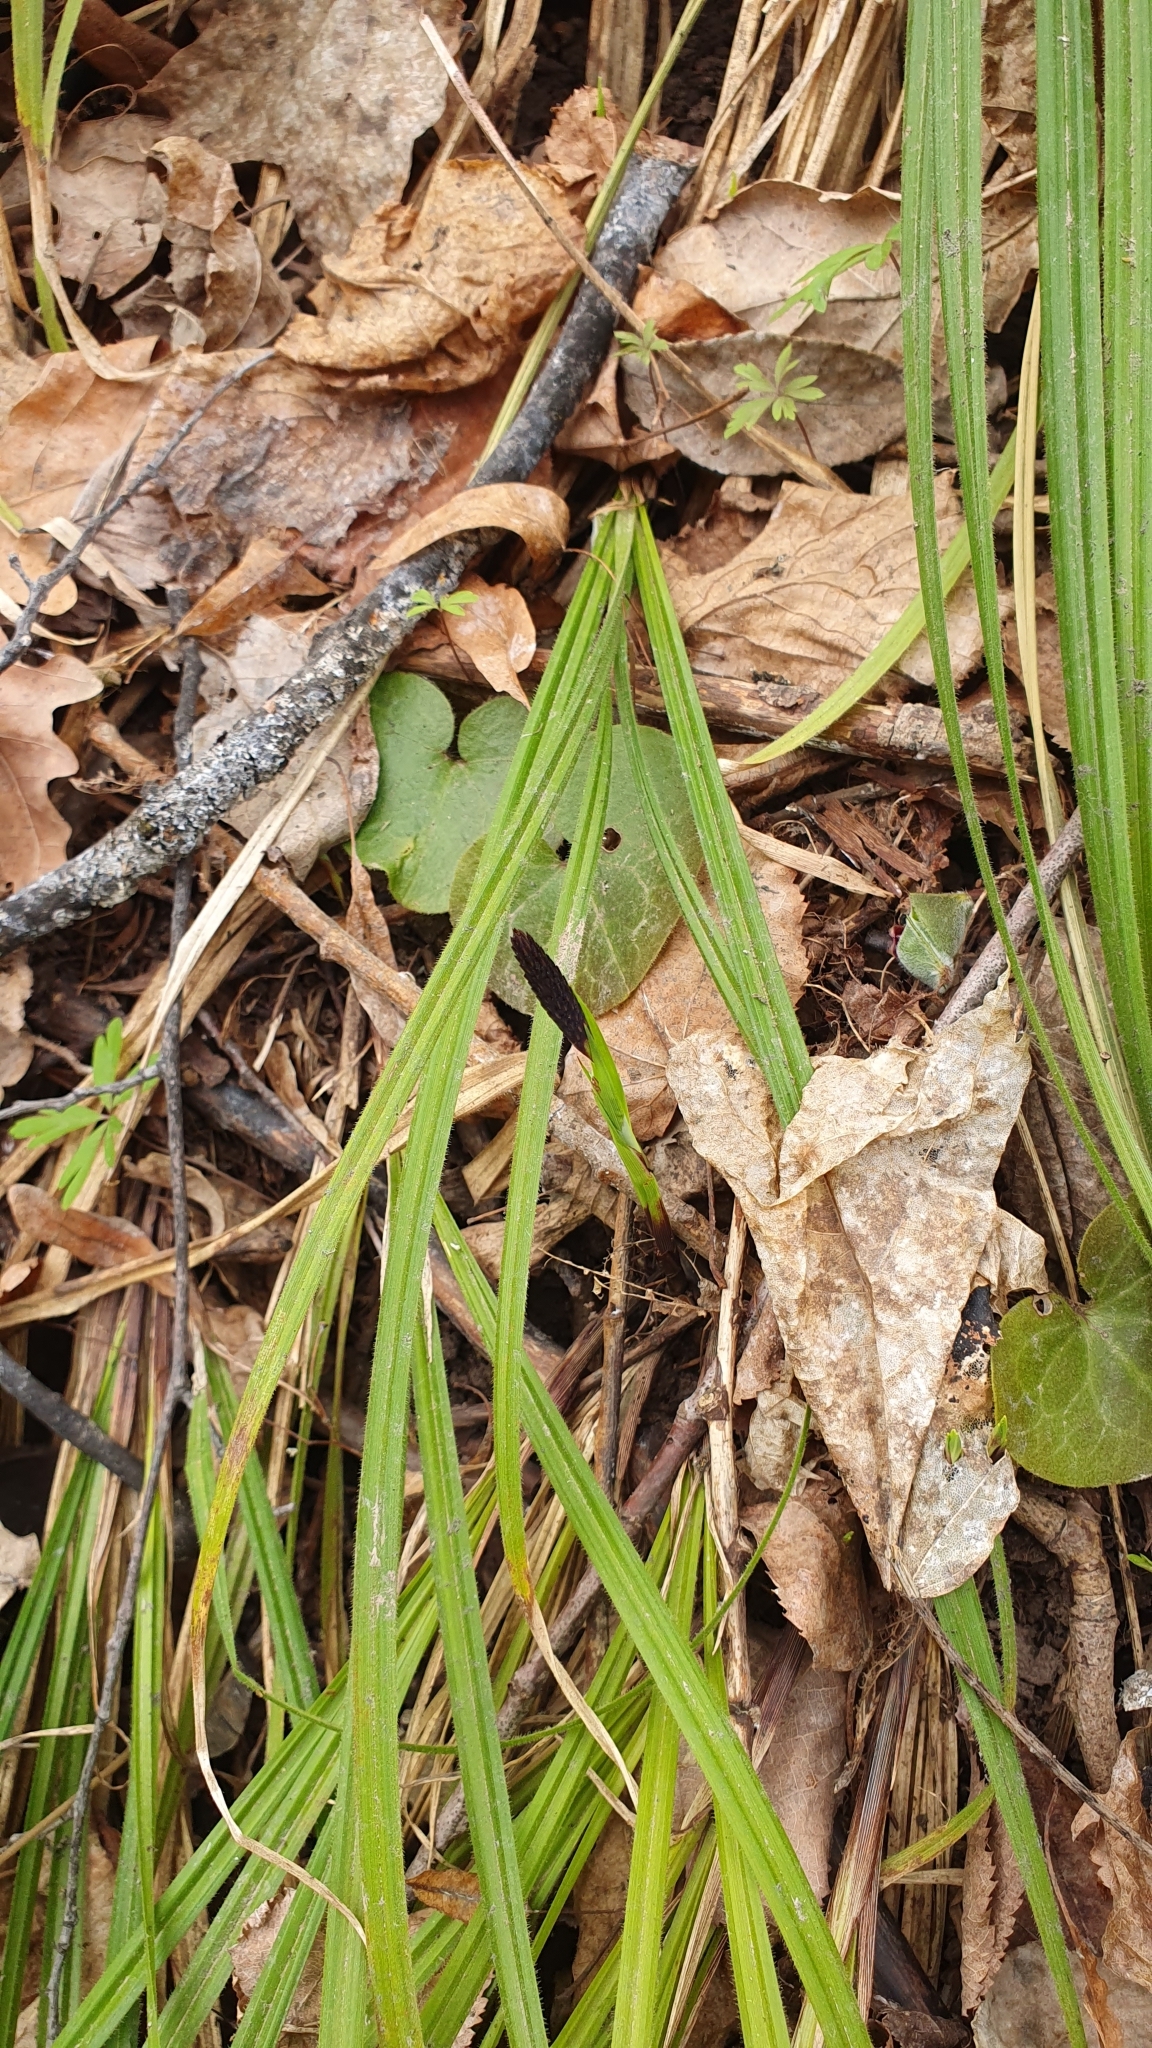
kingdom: Plantae
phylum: Tracheophyta
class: Liliopsida
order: Poales
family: Cyperaceae
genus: Carex
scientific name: Carex pilosa
